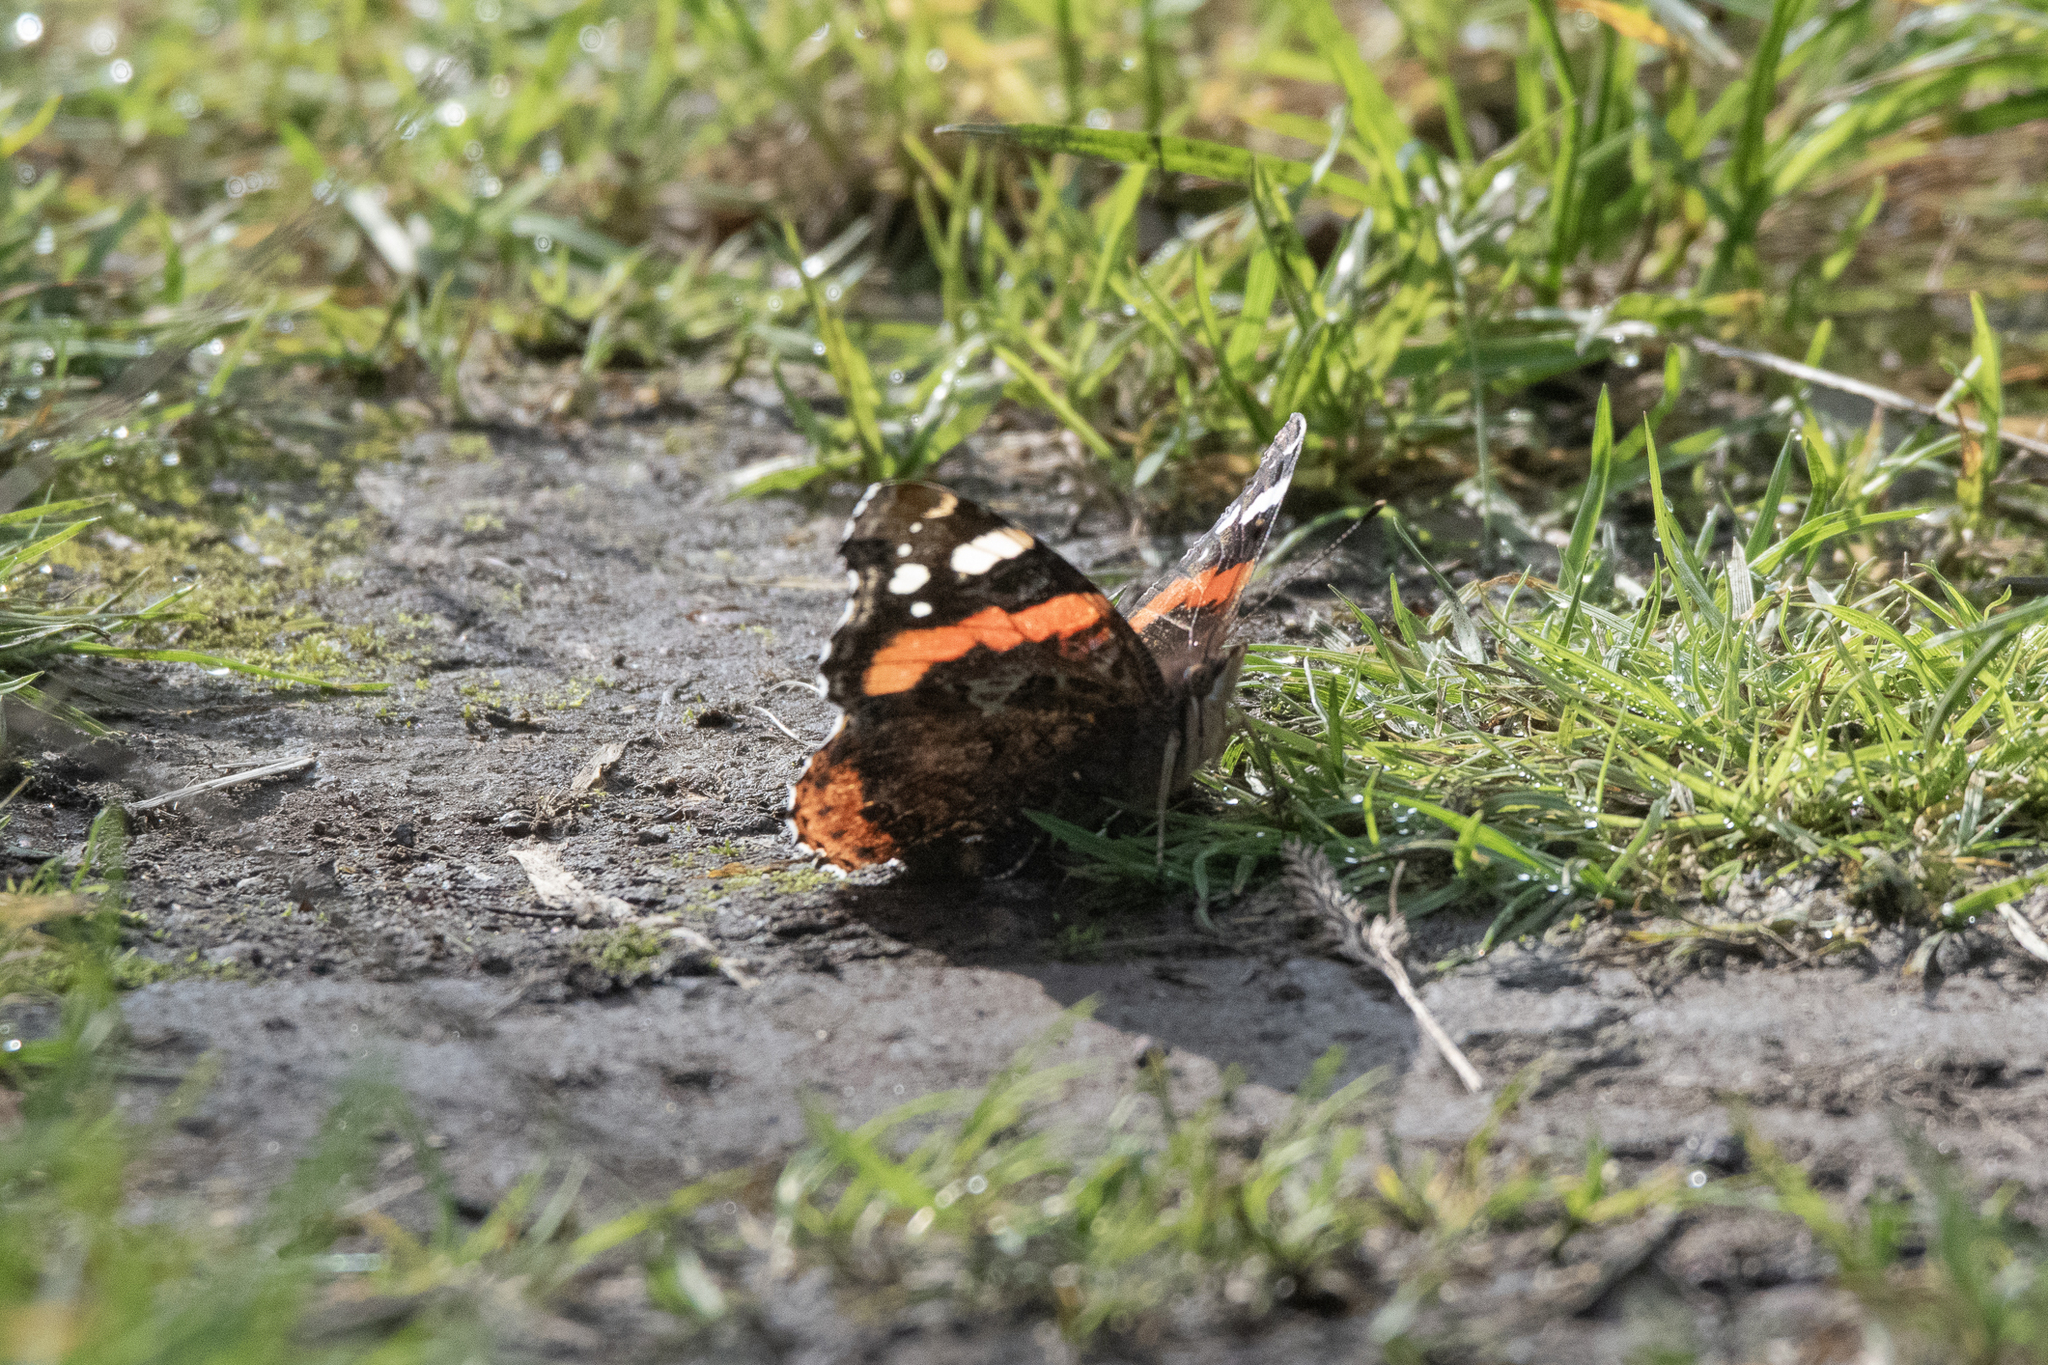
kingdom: Animalia
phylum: Arthropoda
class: Insecta
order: Lepidoptera
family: Nymphalidae
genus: Vanessa
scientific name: Vanessa atalanta
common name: Red admiral
